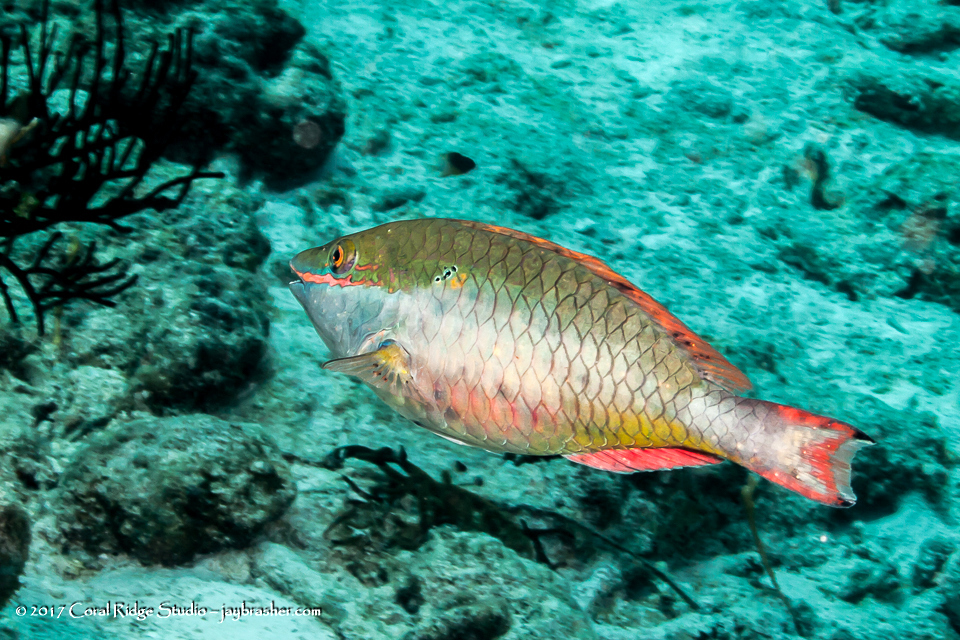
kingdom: Animalia
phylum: Chordata
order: Perciformes
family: Scaridae
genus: Sparisoma
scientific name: Sparisoma aurofrenatum
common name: Redband parrotfish
